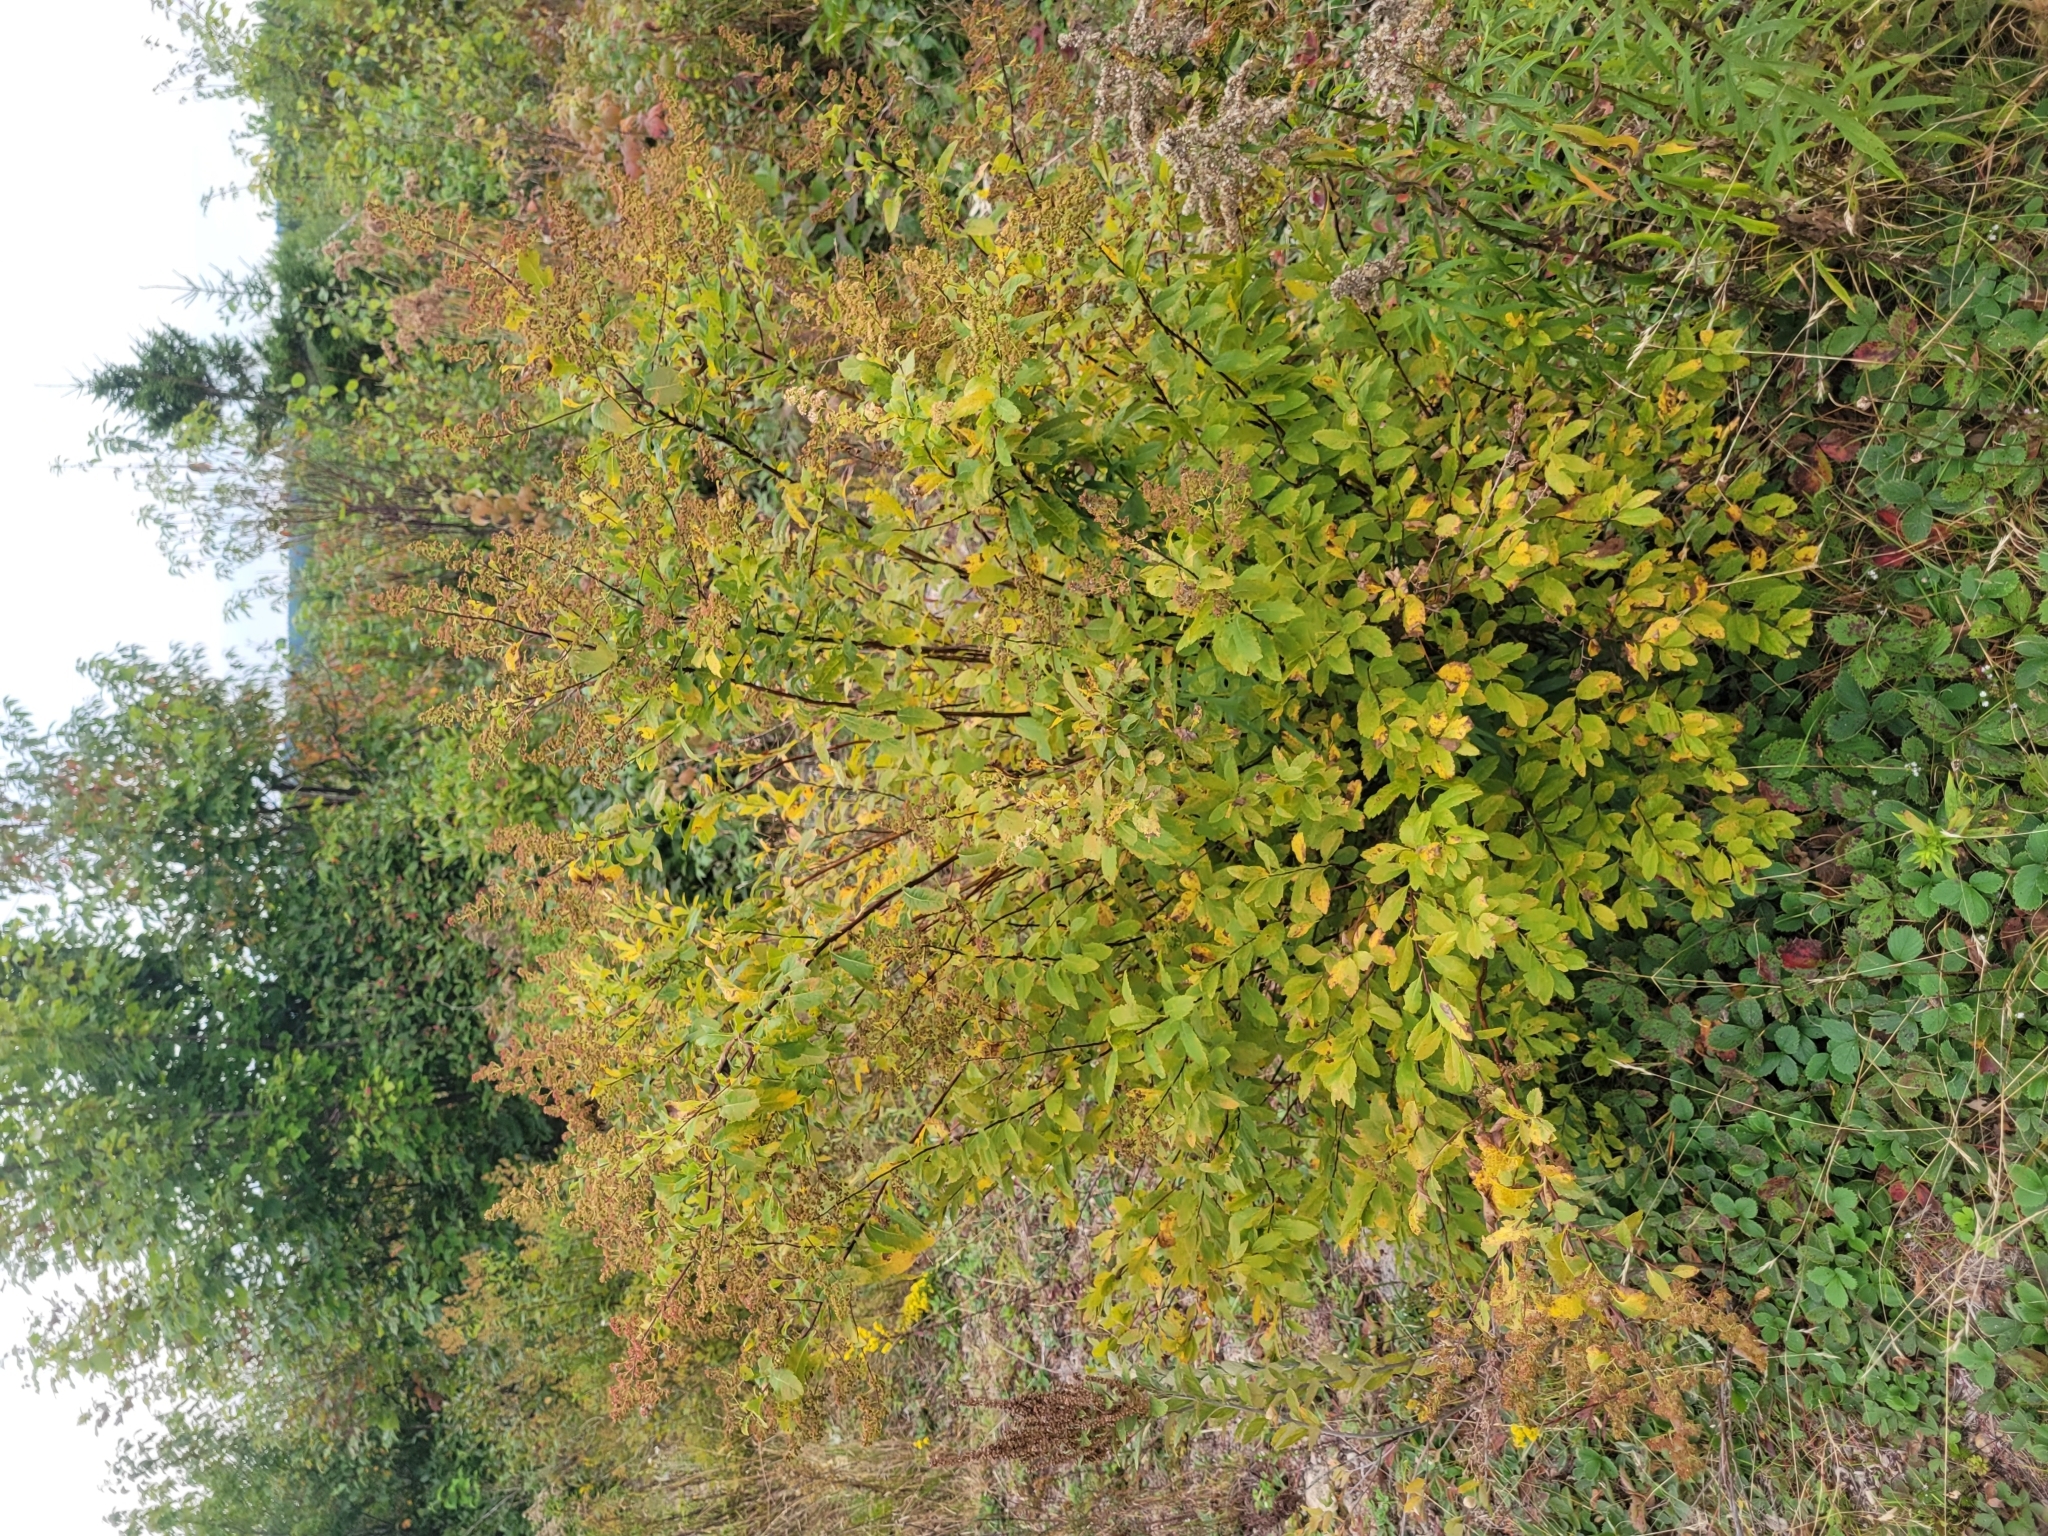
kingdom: Plantae
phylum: Tracheophyta
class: Magnoliopsida
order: Rosales
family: Rosaceae
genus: Spiraea
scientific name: Spiraea alba
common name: Pale bridewort
